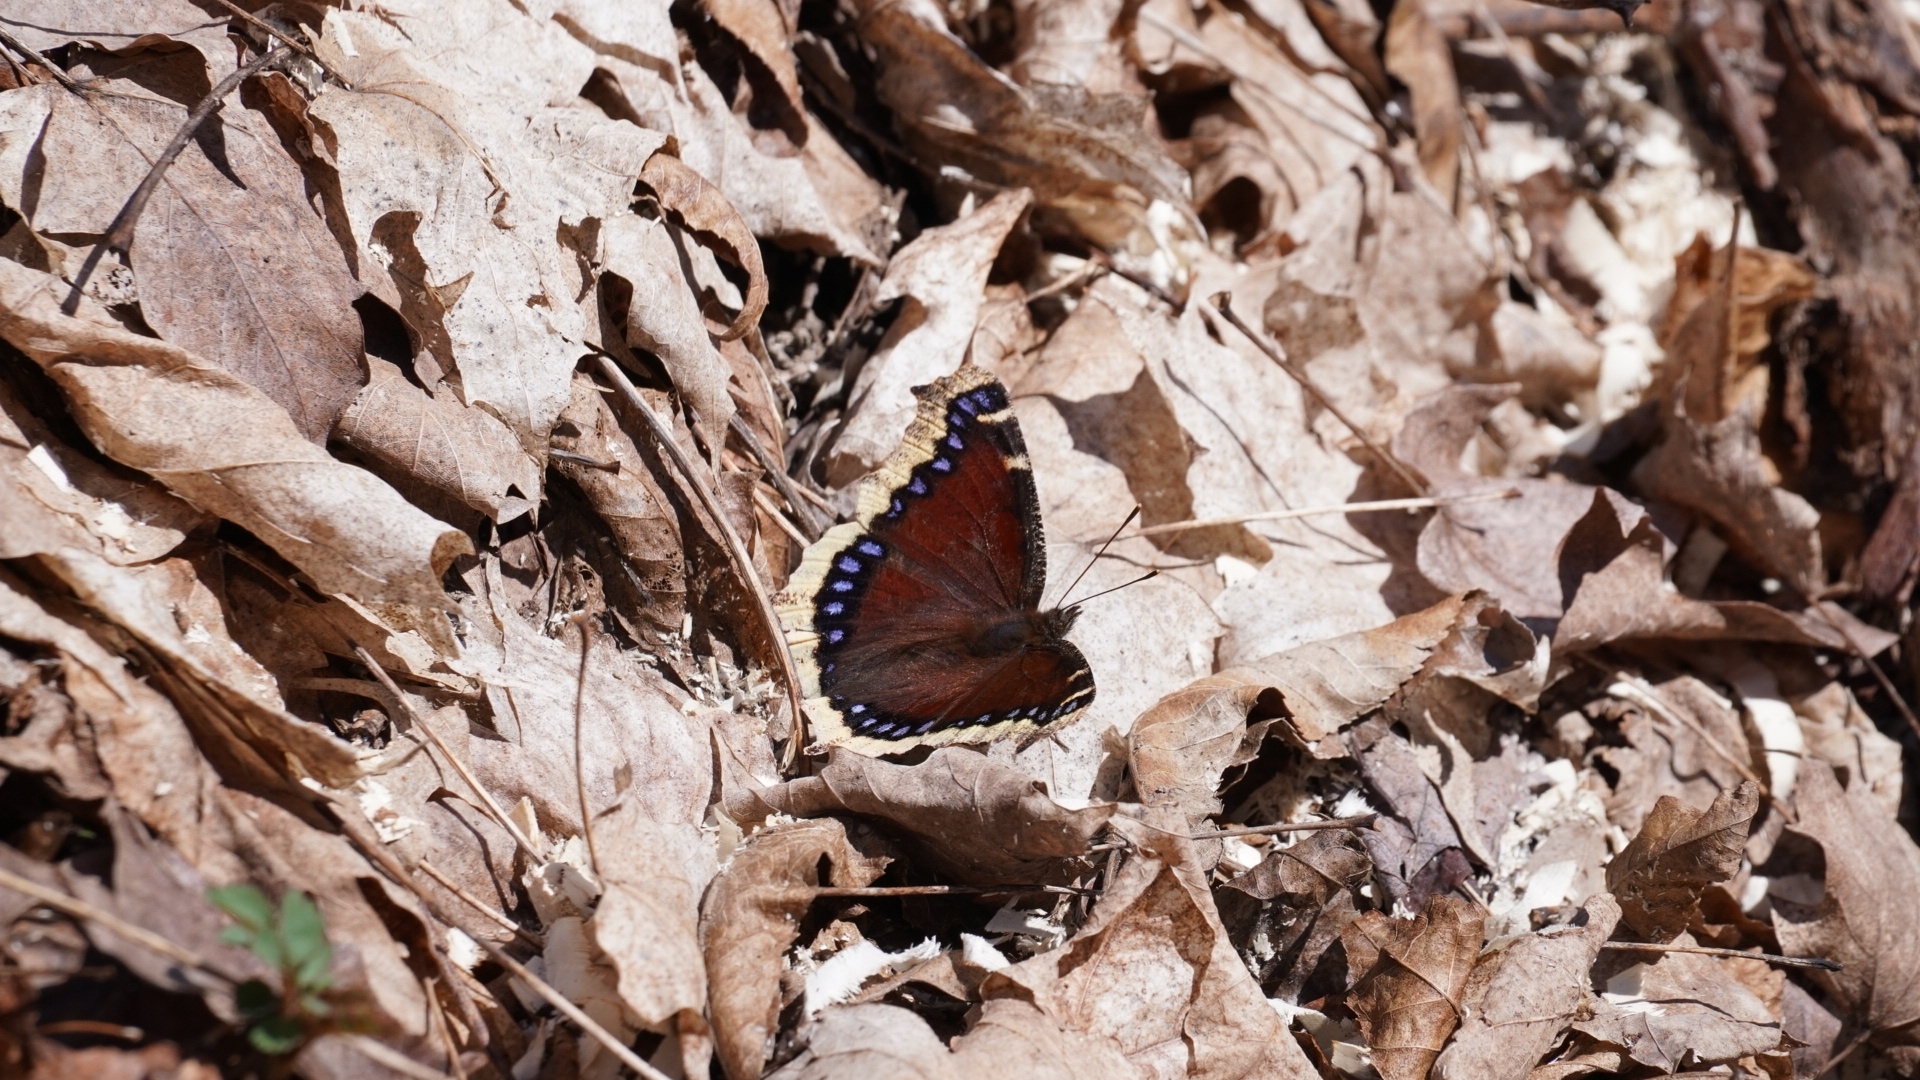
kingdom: Animalia
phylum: Arthropoda
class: Insecta
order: Lepidoptera
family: Nymphalidae
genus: Nymphalis
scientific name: Nymphalis antiopa
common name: Camberwell beauty
